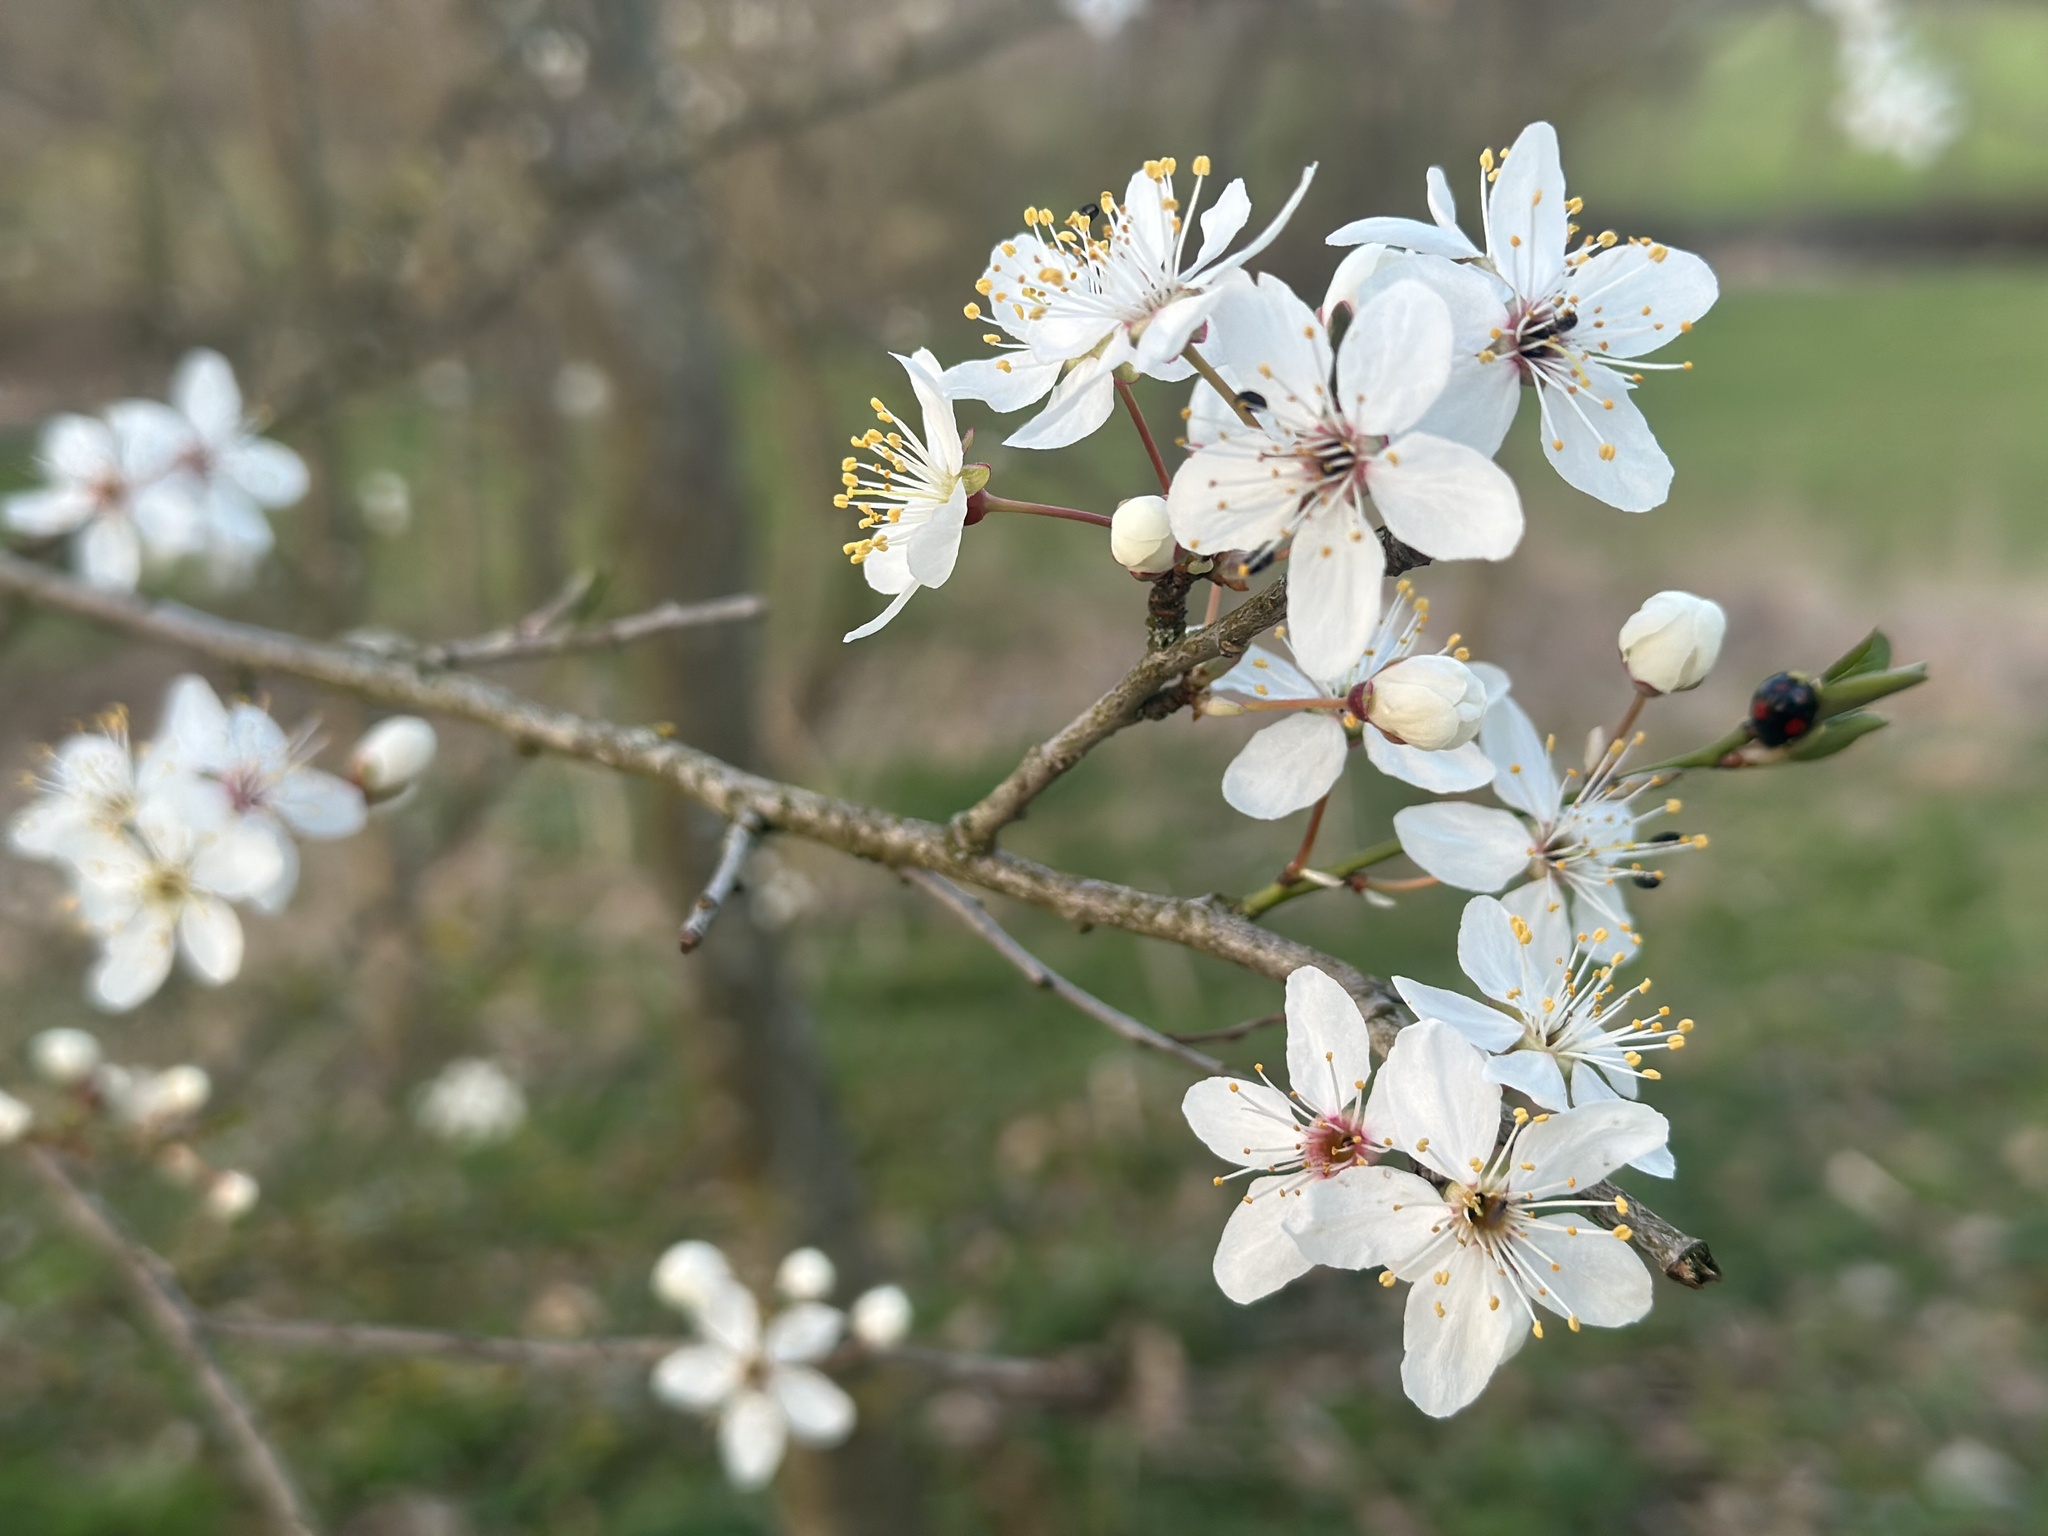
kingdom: Plantae
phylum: Tracheophyta
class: Magnoliopsida
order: Rosales
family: Rosaceae
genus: Prunus
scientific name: Prunus cerasifera
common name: Cherry plum
